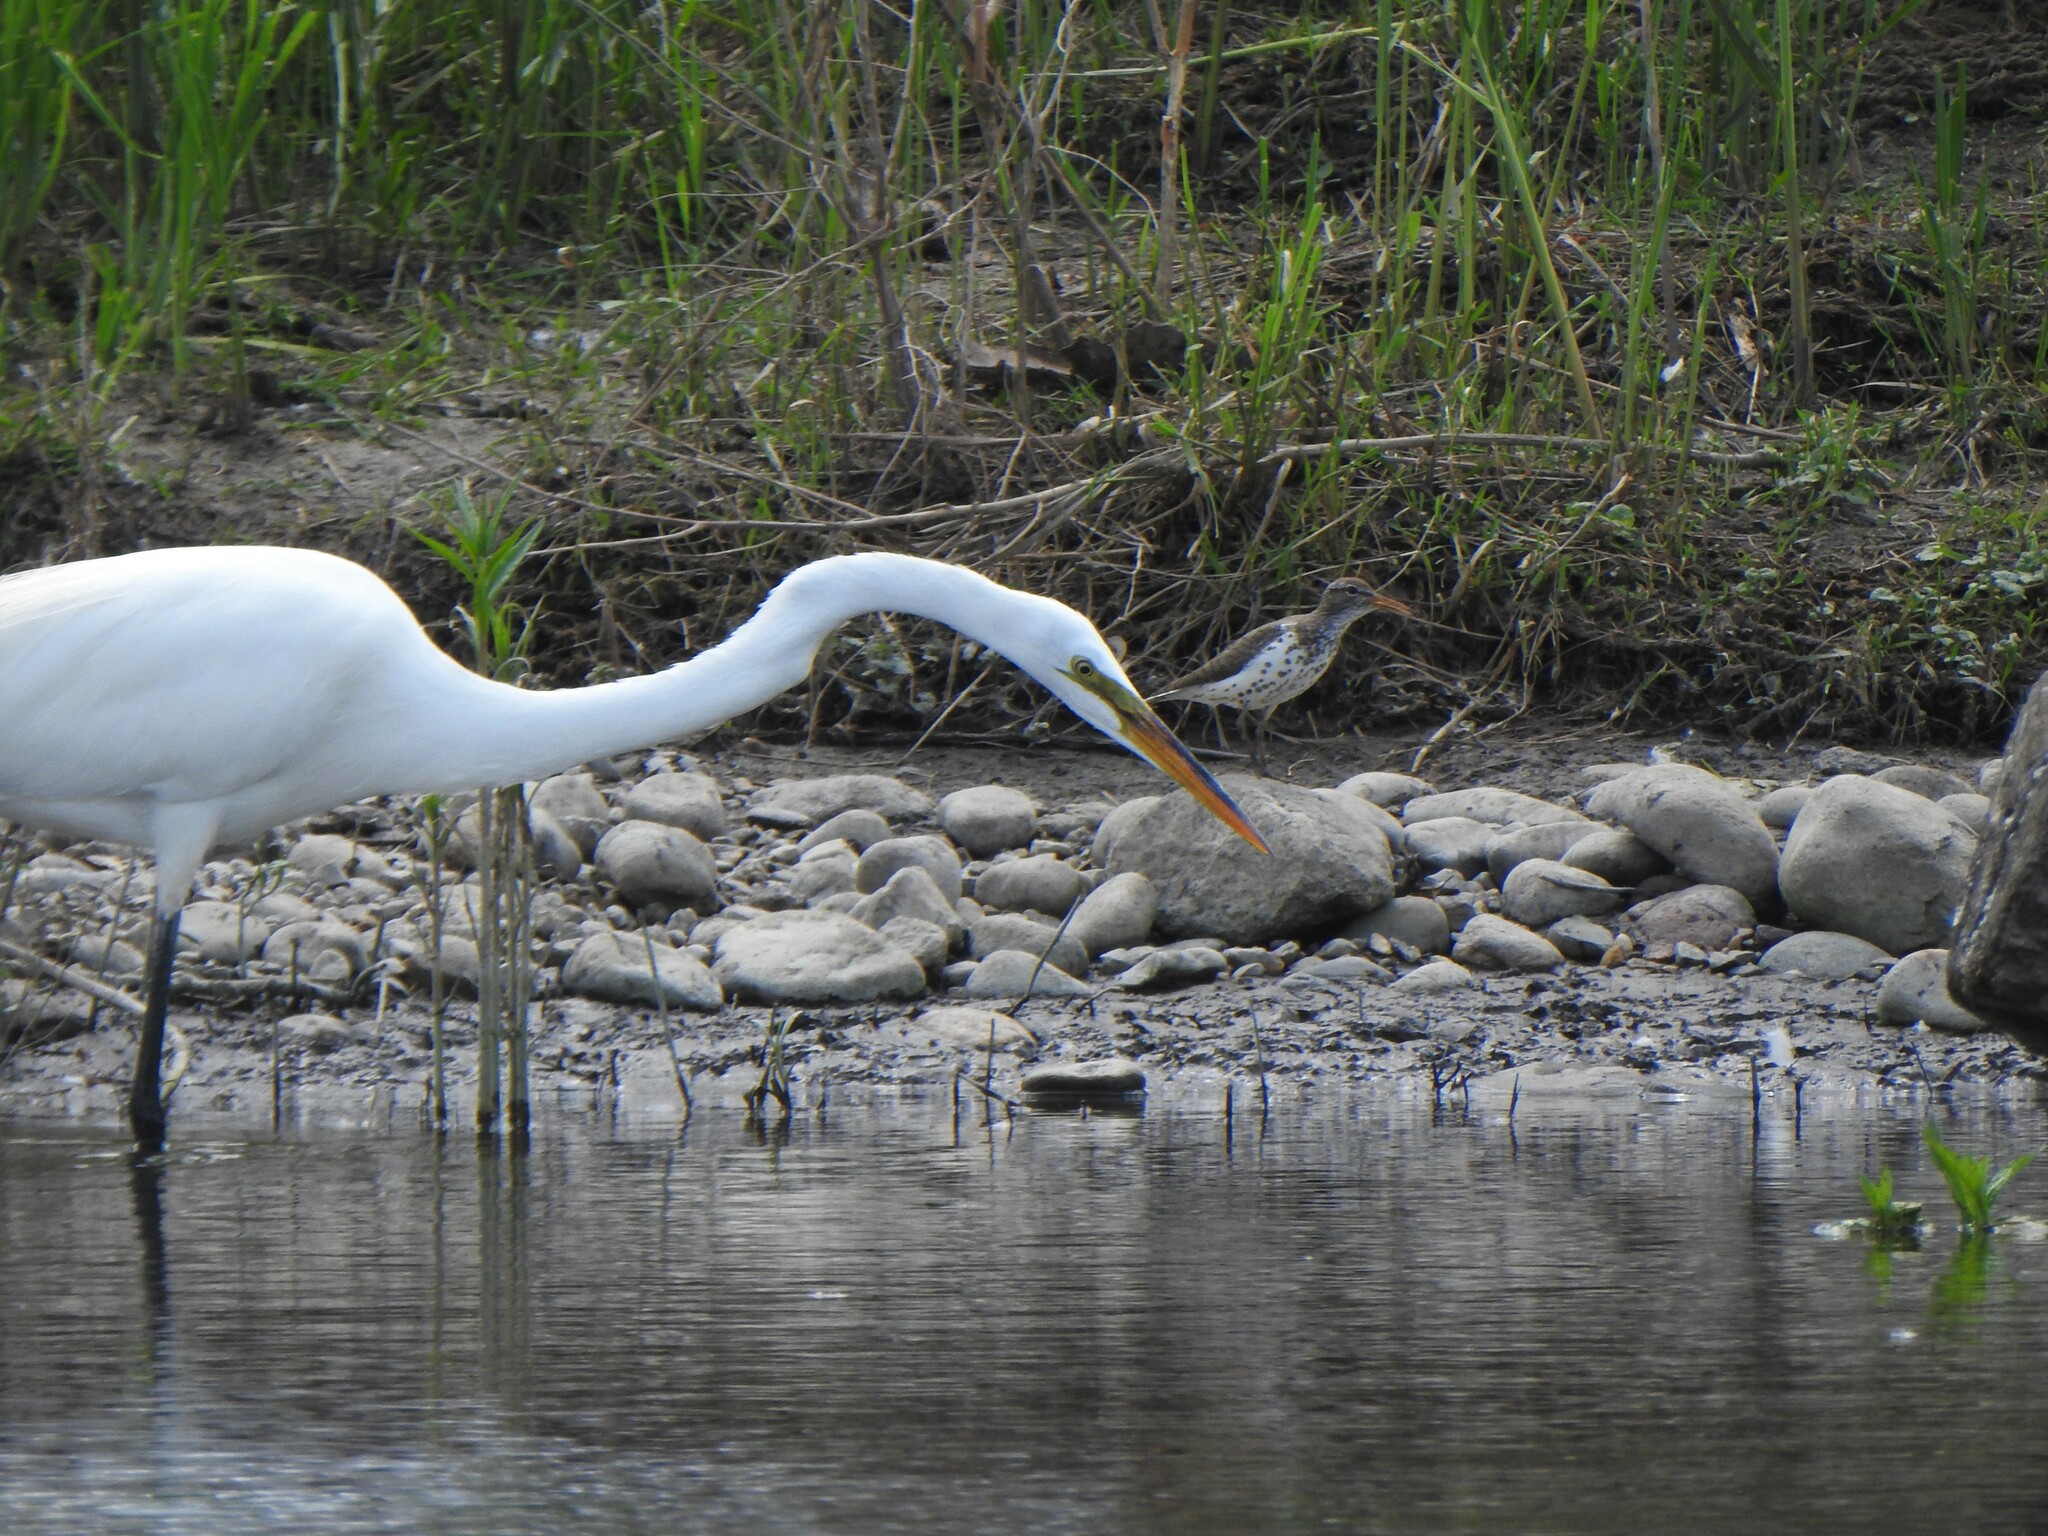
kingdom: Animalia
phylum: Chordata
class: Aves
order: Pelecaniformes
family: Ardeidae
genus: Ardea
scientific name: Ardea alba
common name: Great egret
